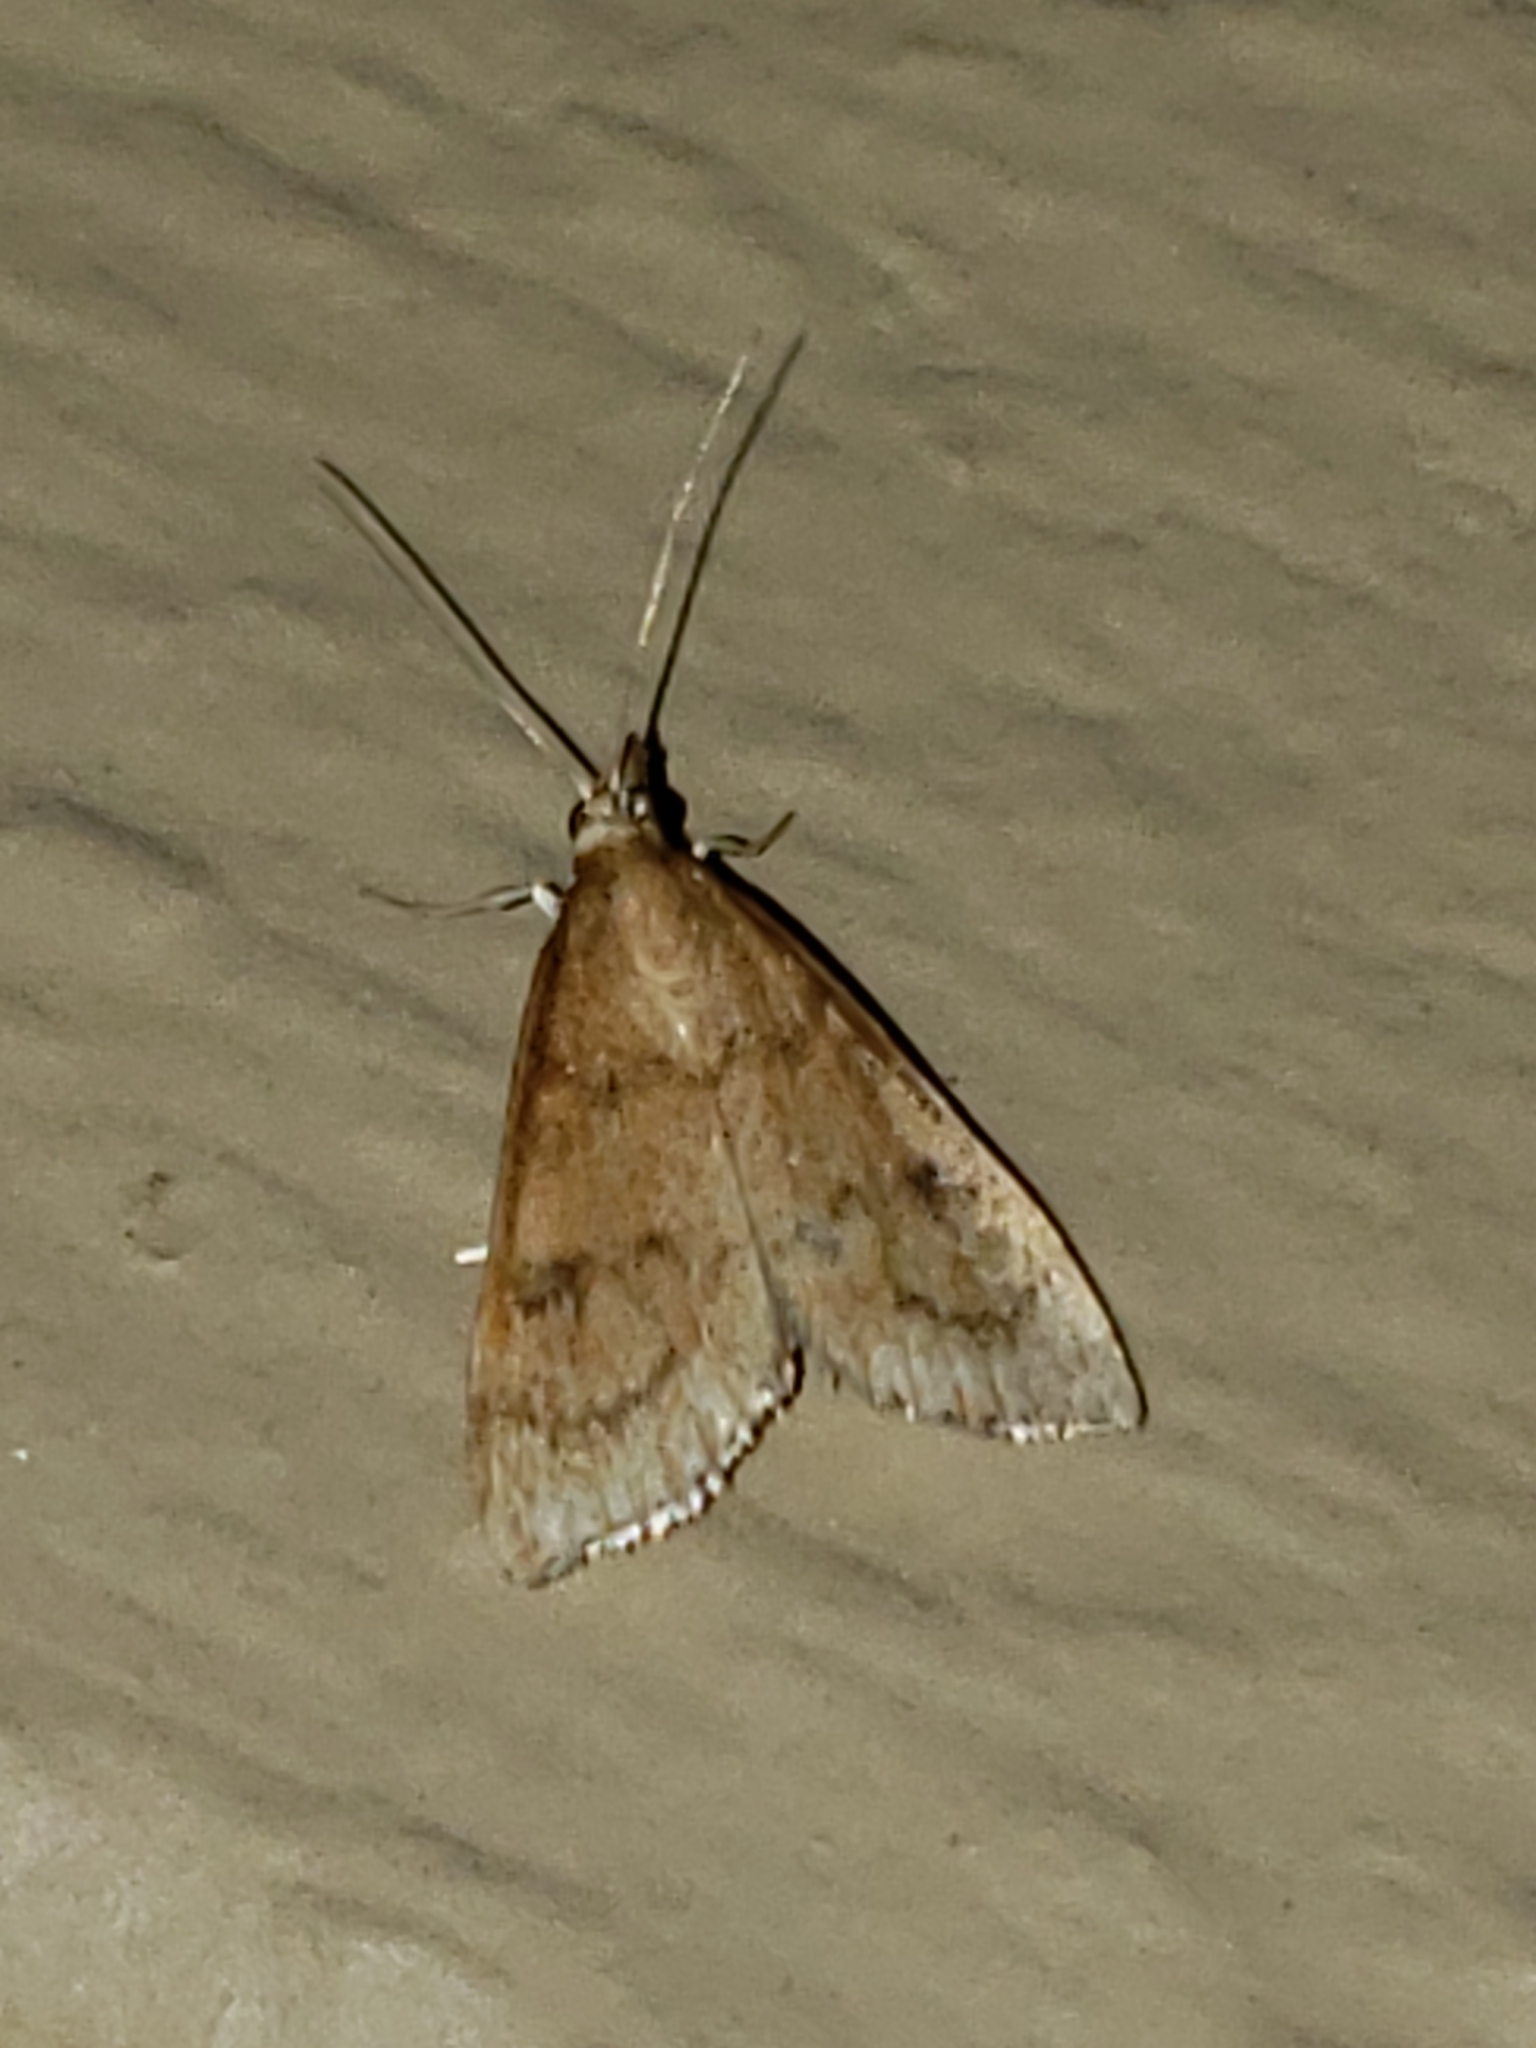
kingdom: Animalia
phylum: Arthropoda
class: Insecta
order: Lepidoptera
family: Crambidae
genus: Udea
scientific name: Udea rubigalis
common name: Celery leaftier moth
